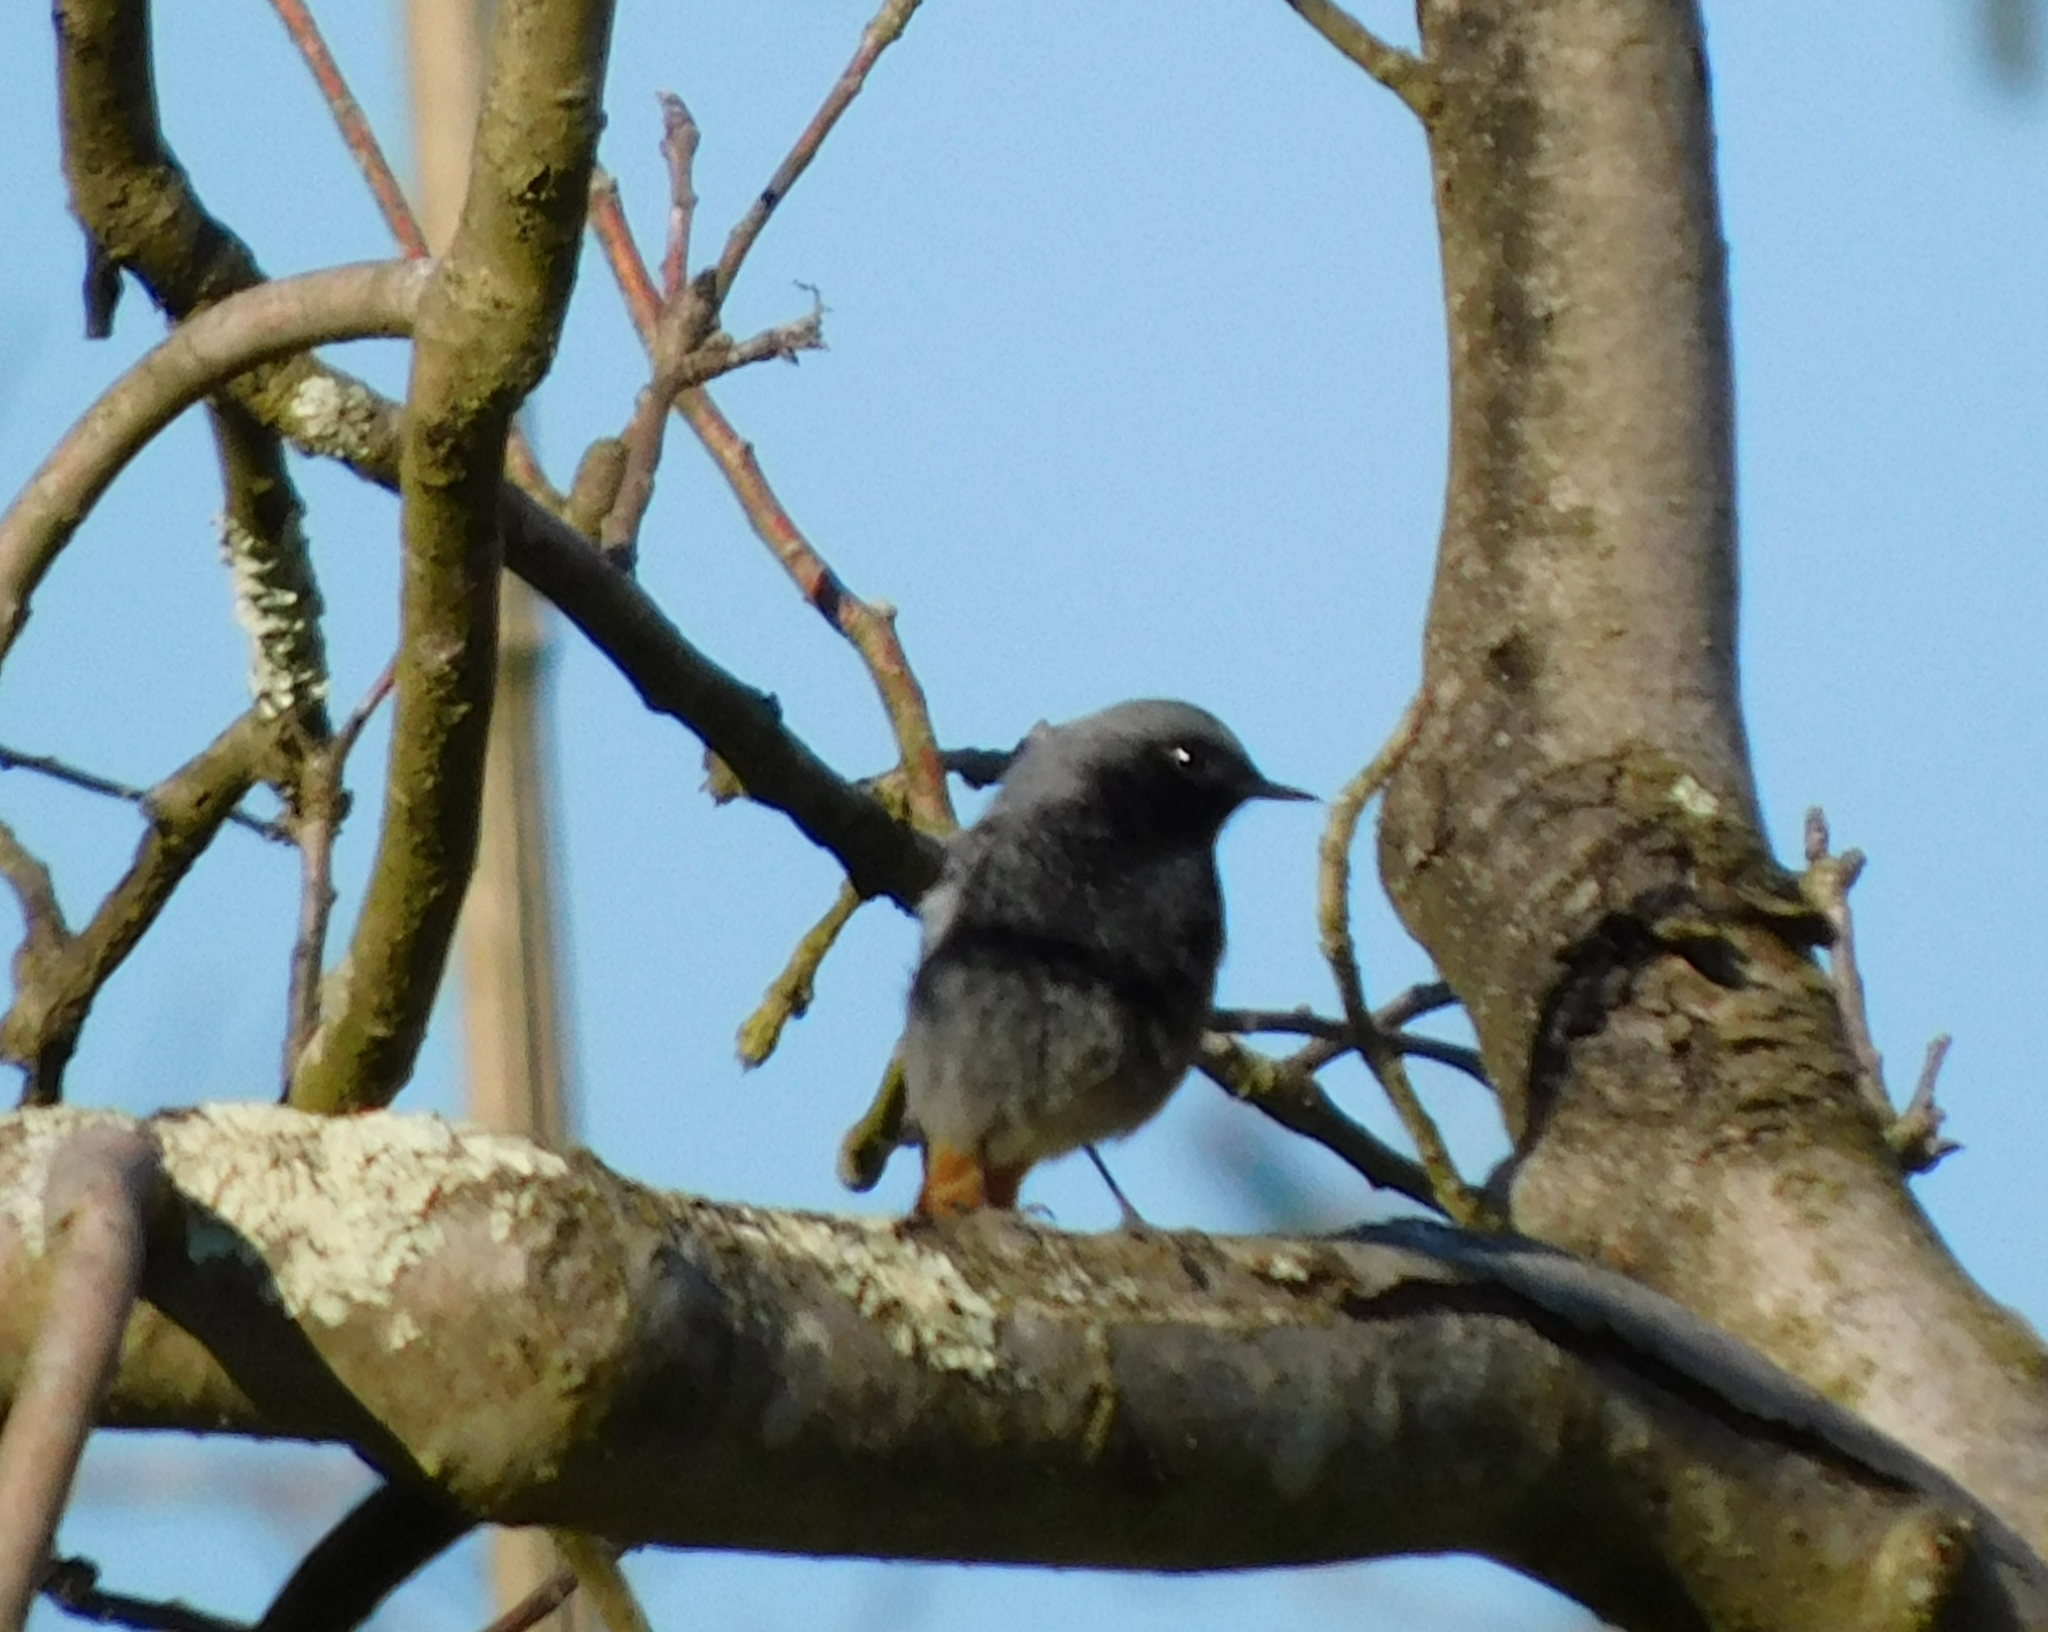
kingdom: Animalia
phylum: Chordata
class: Aves
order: Passeriformes
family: Muscicapidae
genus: Phoenicurus
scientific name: Phoenicurus ochruros
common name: Black redstart
